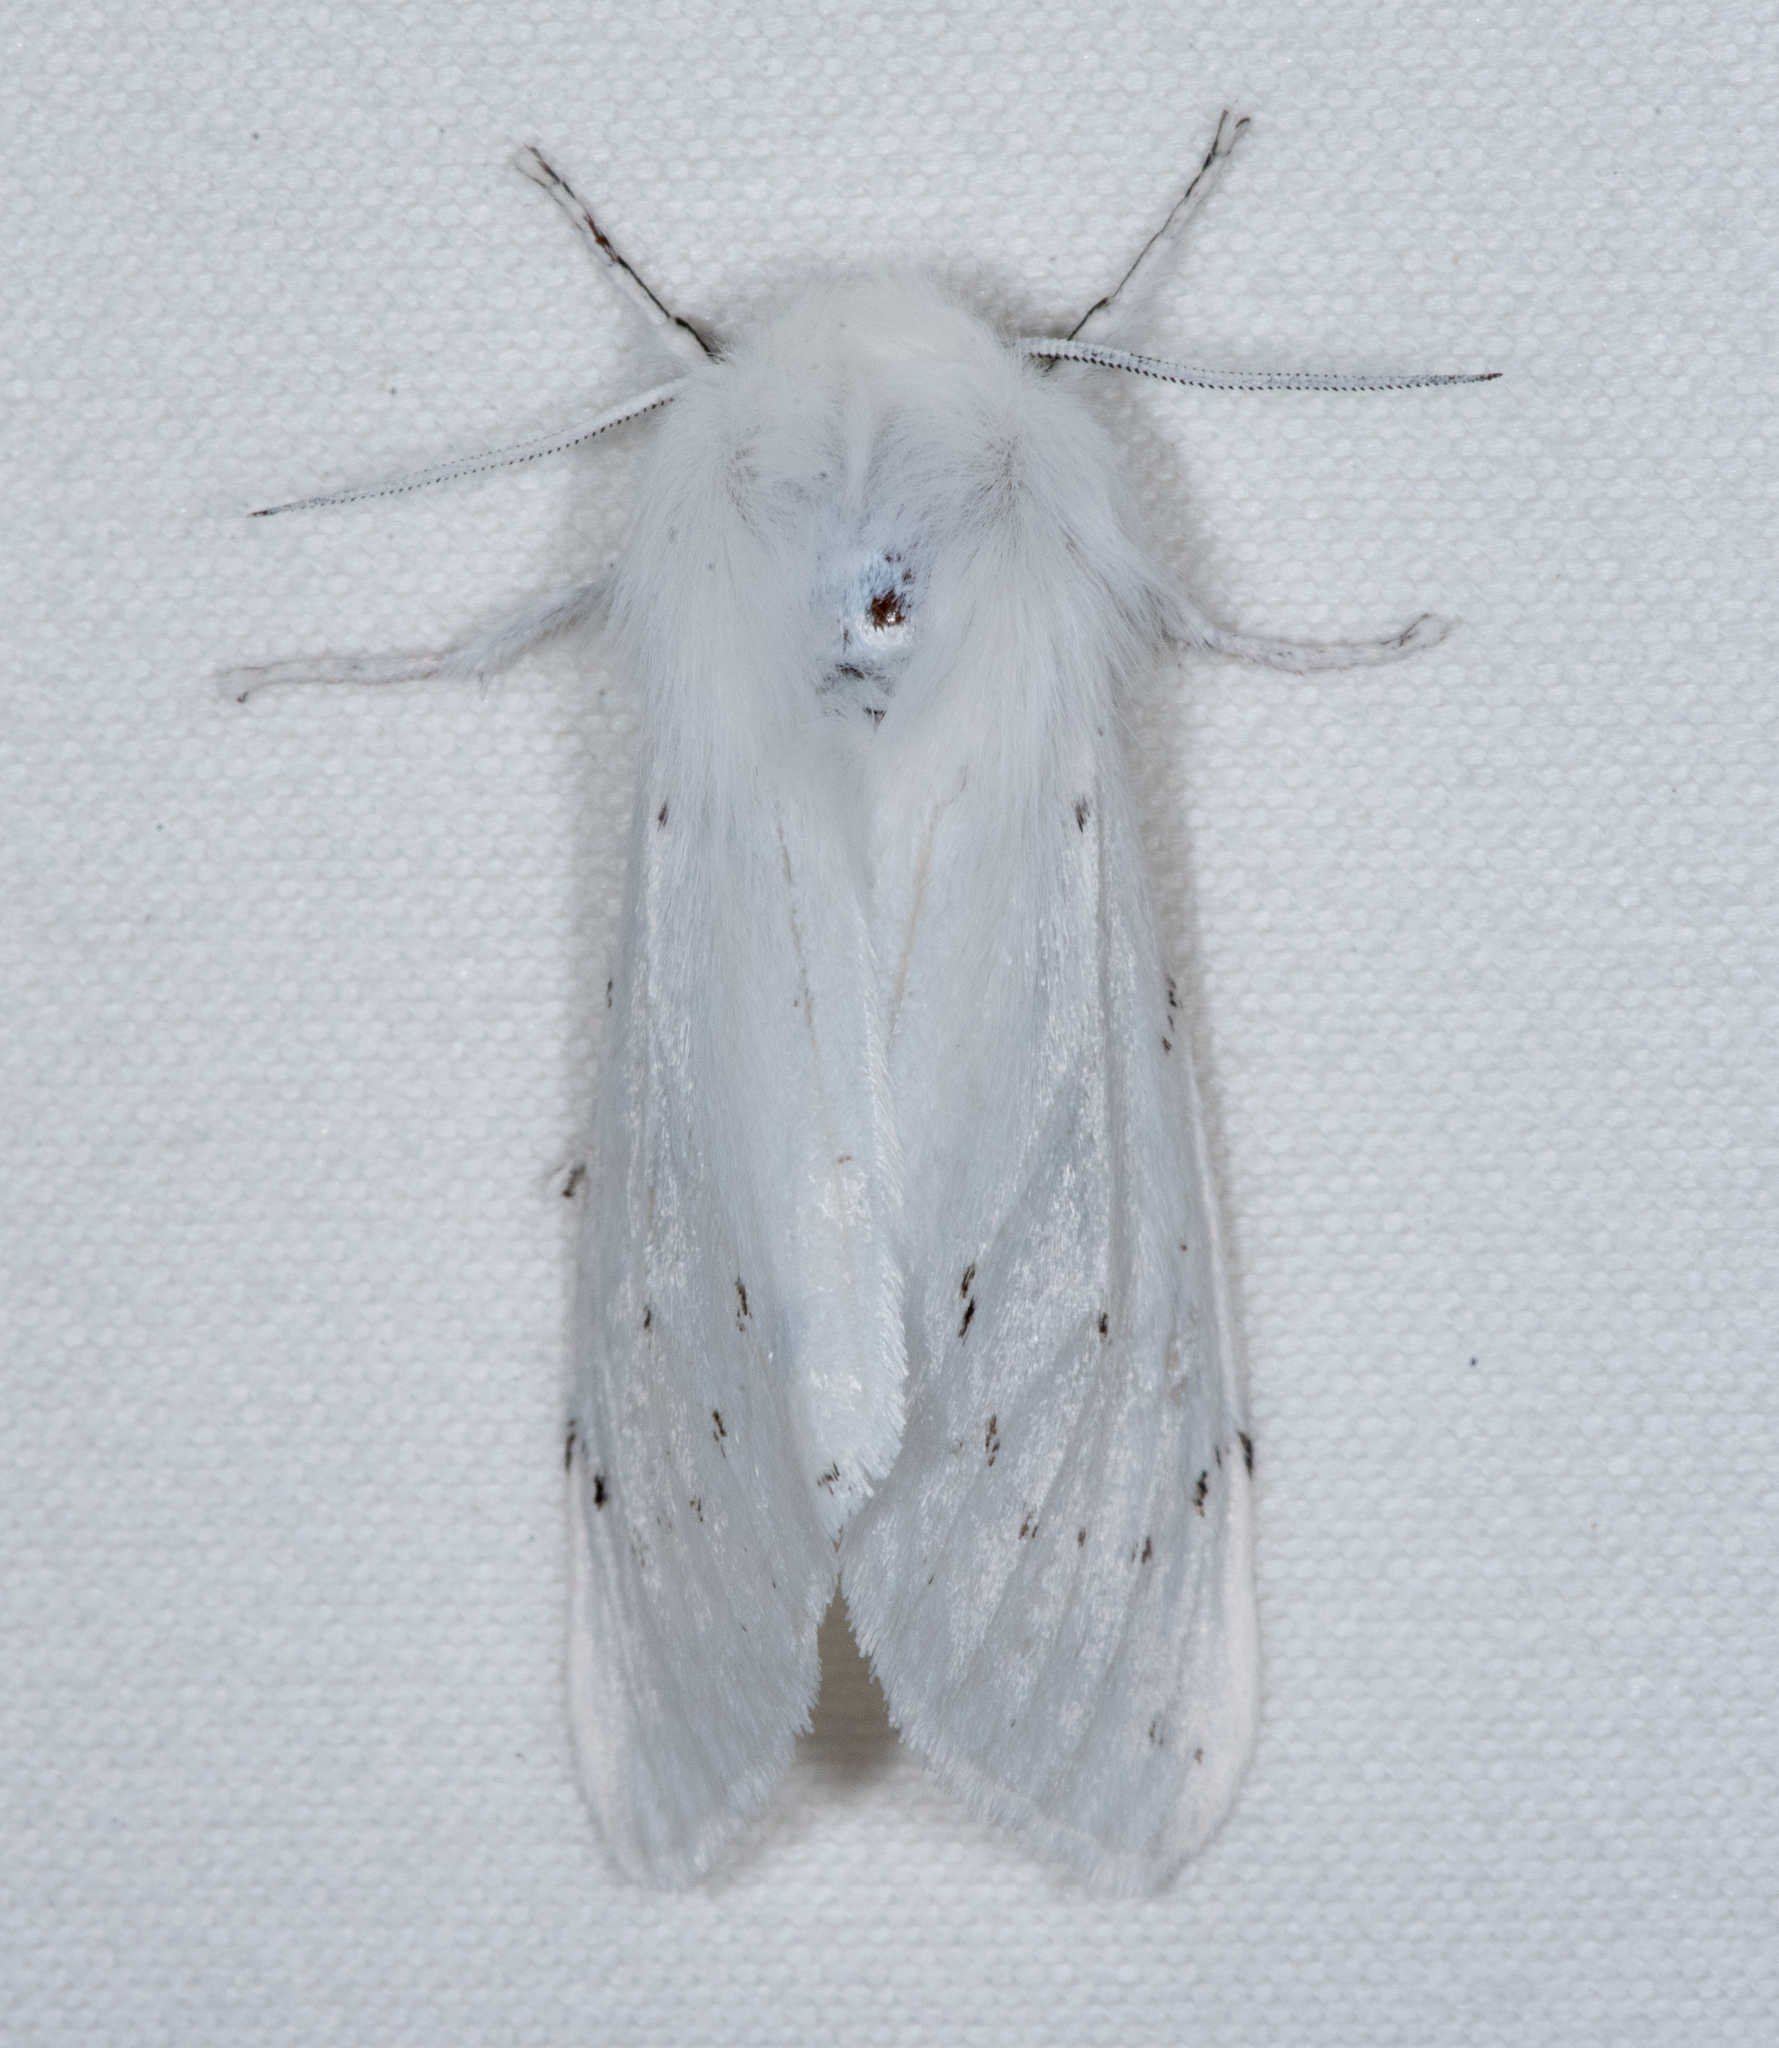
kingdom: Animalia
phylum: Arthropoda
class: Insecta
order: Lepidoptera
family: Erebidae
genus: Spilosoma
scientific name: Spilosoma vestalis
